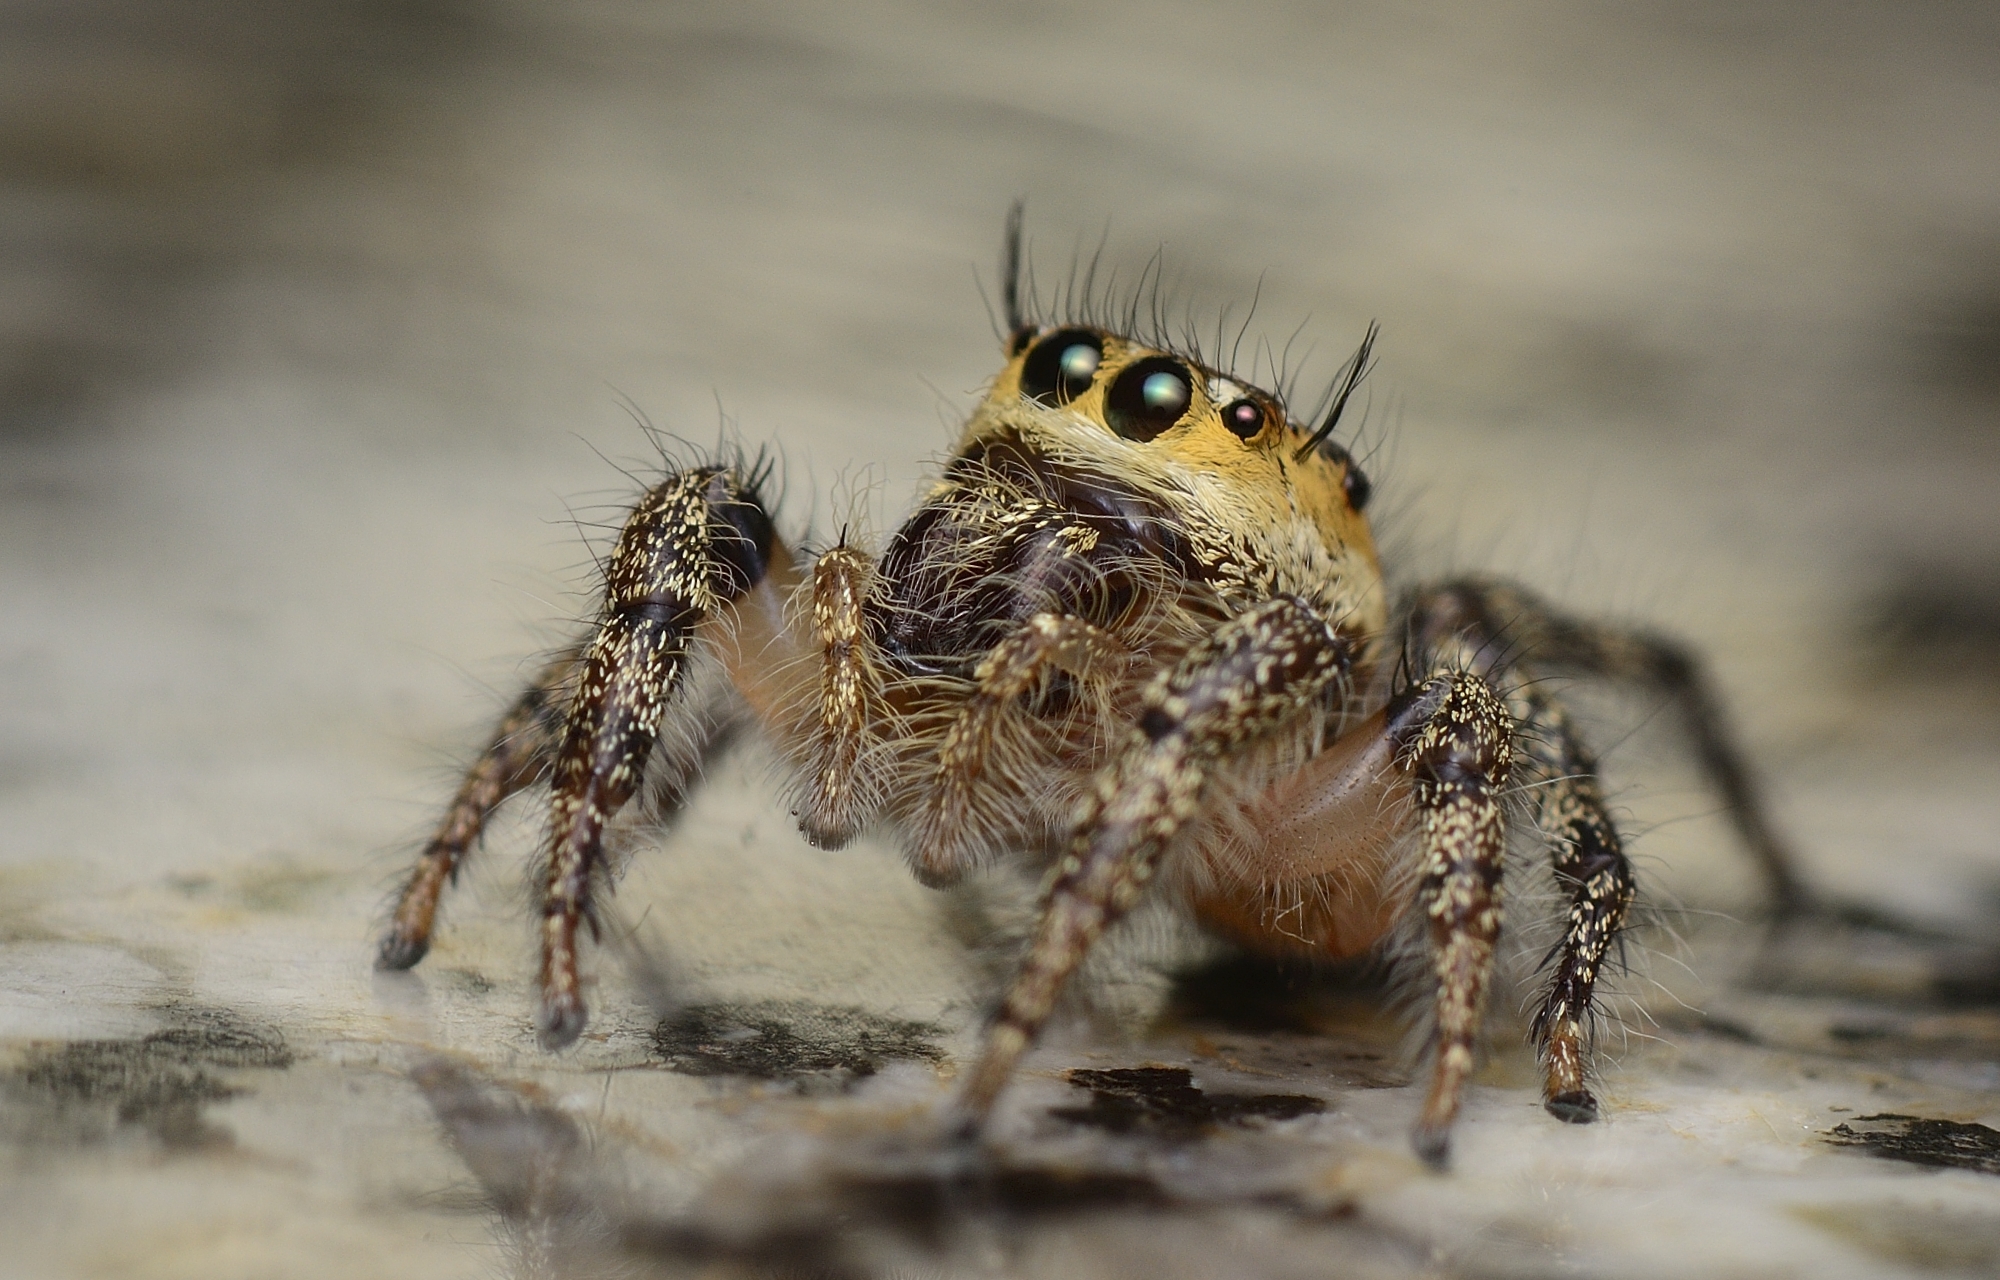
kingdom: Animalia
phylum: Arthropoda
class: Arachnida
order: Araneae
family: Salticidae
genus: Hyllus
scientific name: Hyllus semicupreus
